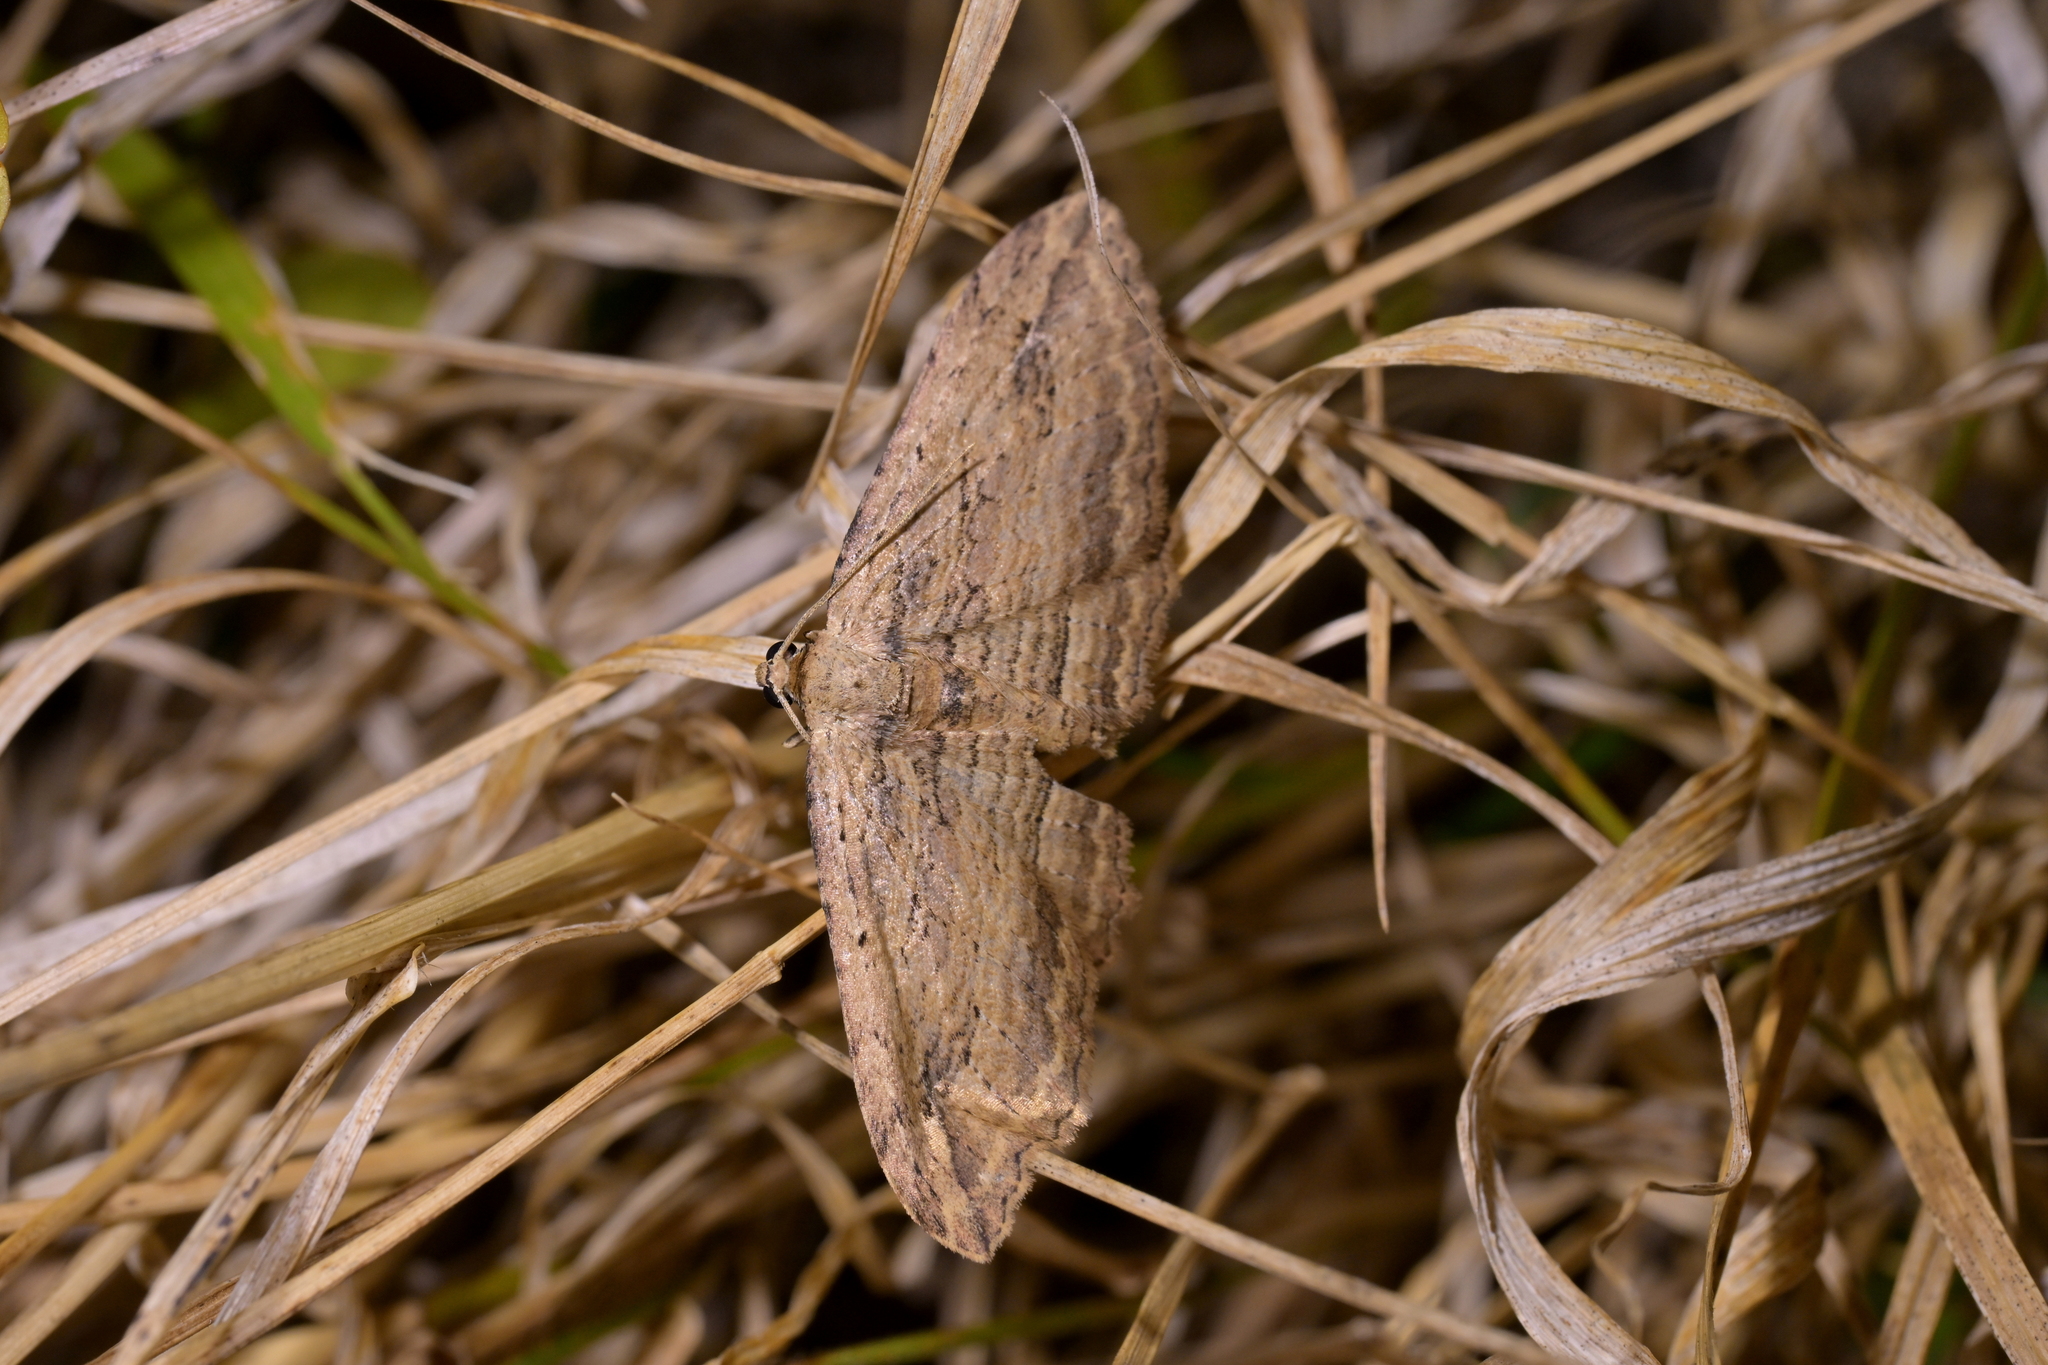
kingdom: Animalia
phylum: Arthropoda
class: Insecta
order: Lepidoptera
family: Geometridae
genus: Austrocidaria
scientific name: Austrocidaria gobiata
